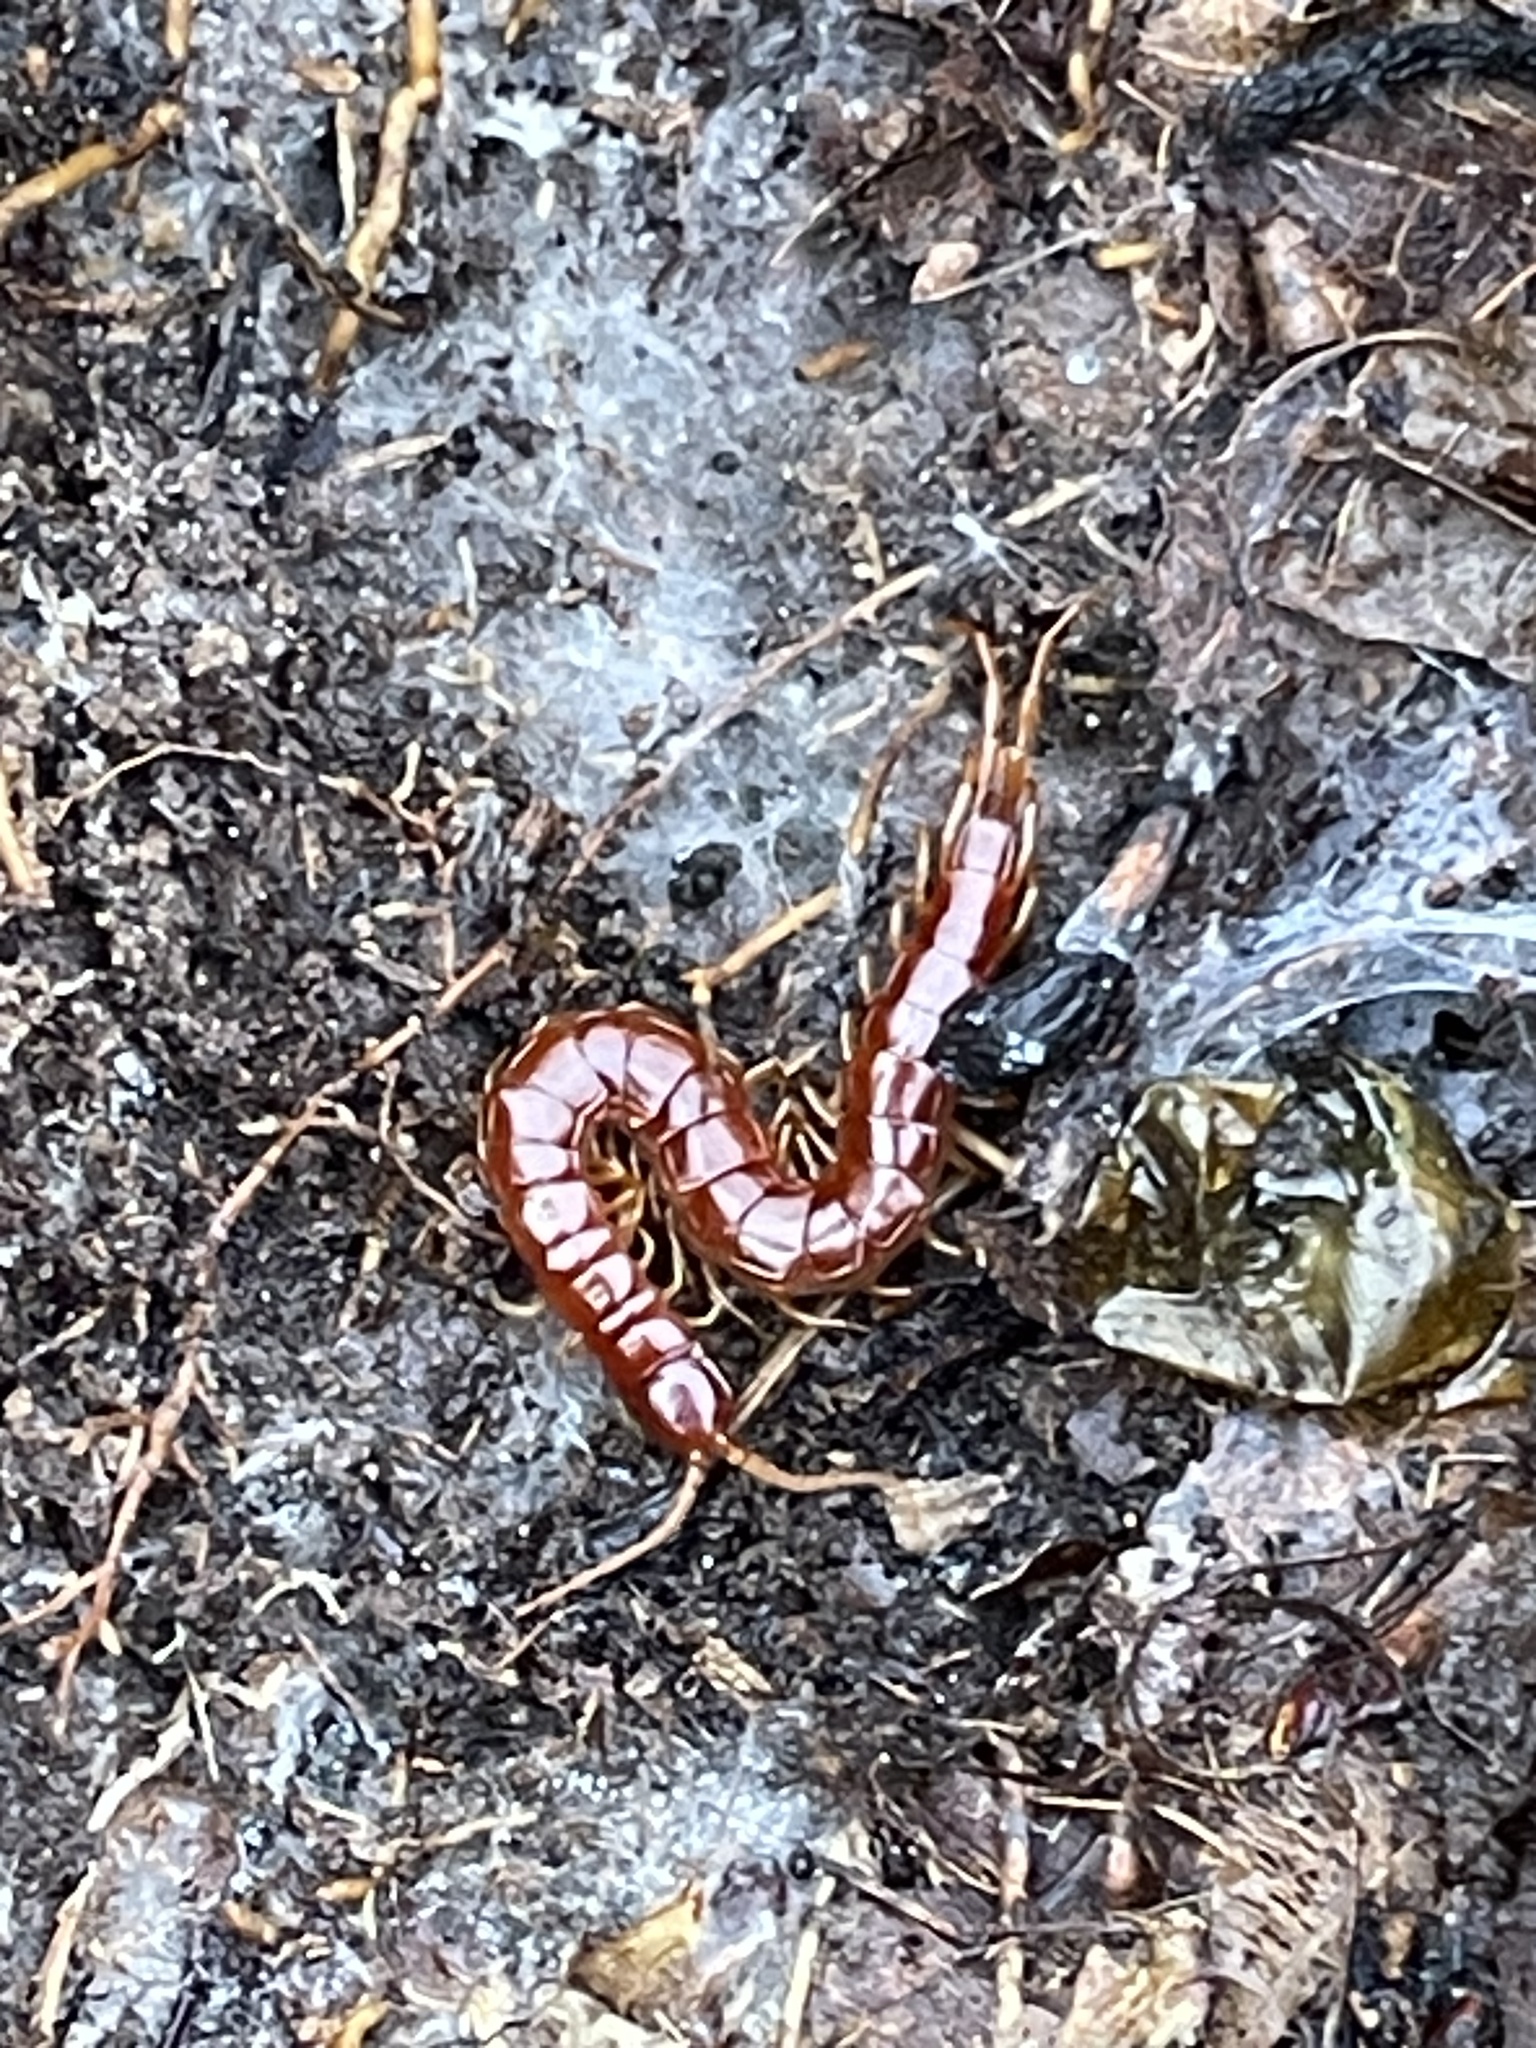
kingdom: Animalia
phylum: Arthropoda
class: Chilopoda
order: Scolopendromorpha
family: Scolopocryptopidae
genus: Scolopocryptops
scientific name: Scolopocryptops sexspinosus
